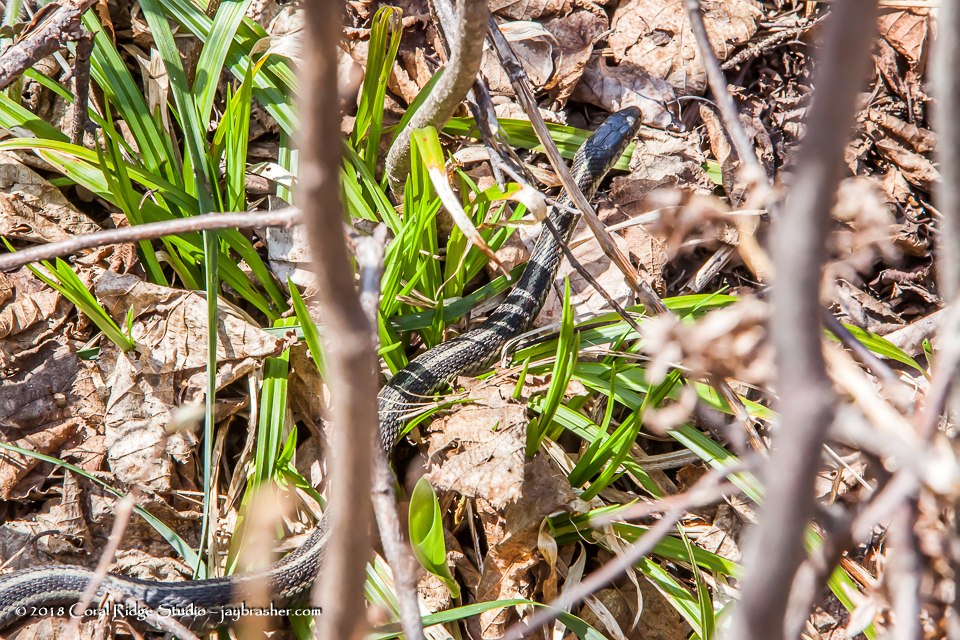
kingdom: Animalia
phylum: Chordata
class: Squamata
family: Colubridae
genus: Thamnophis
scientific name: Thamnophis sirtalis
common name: Common garter snake
